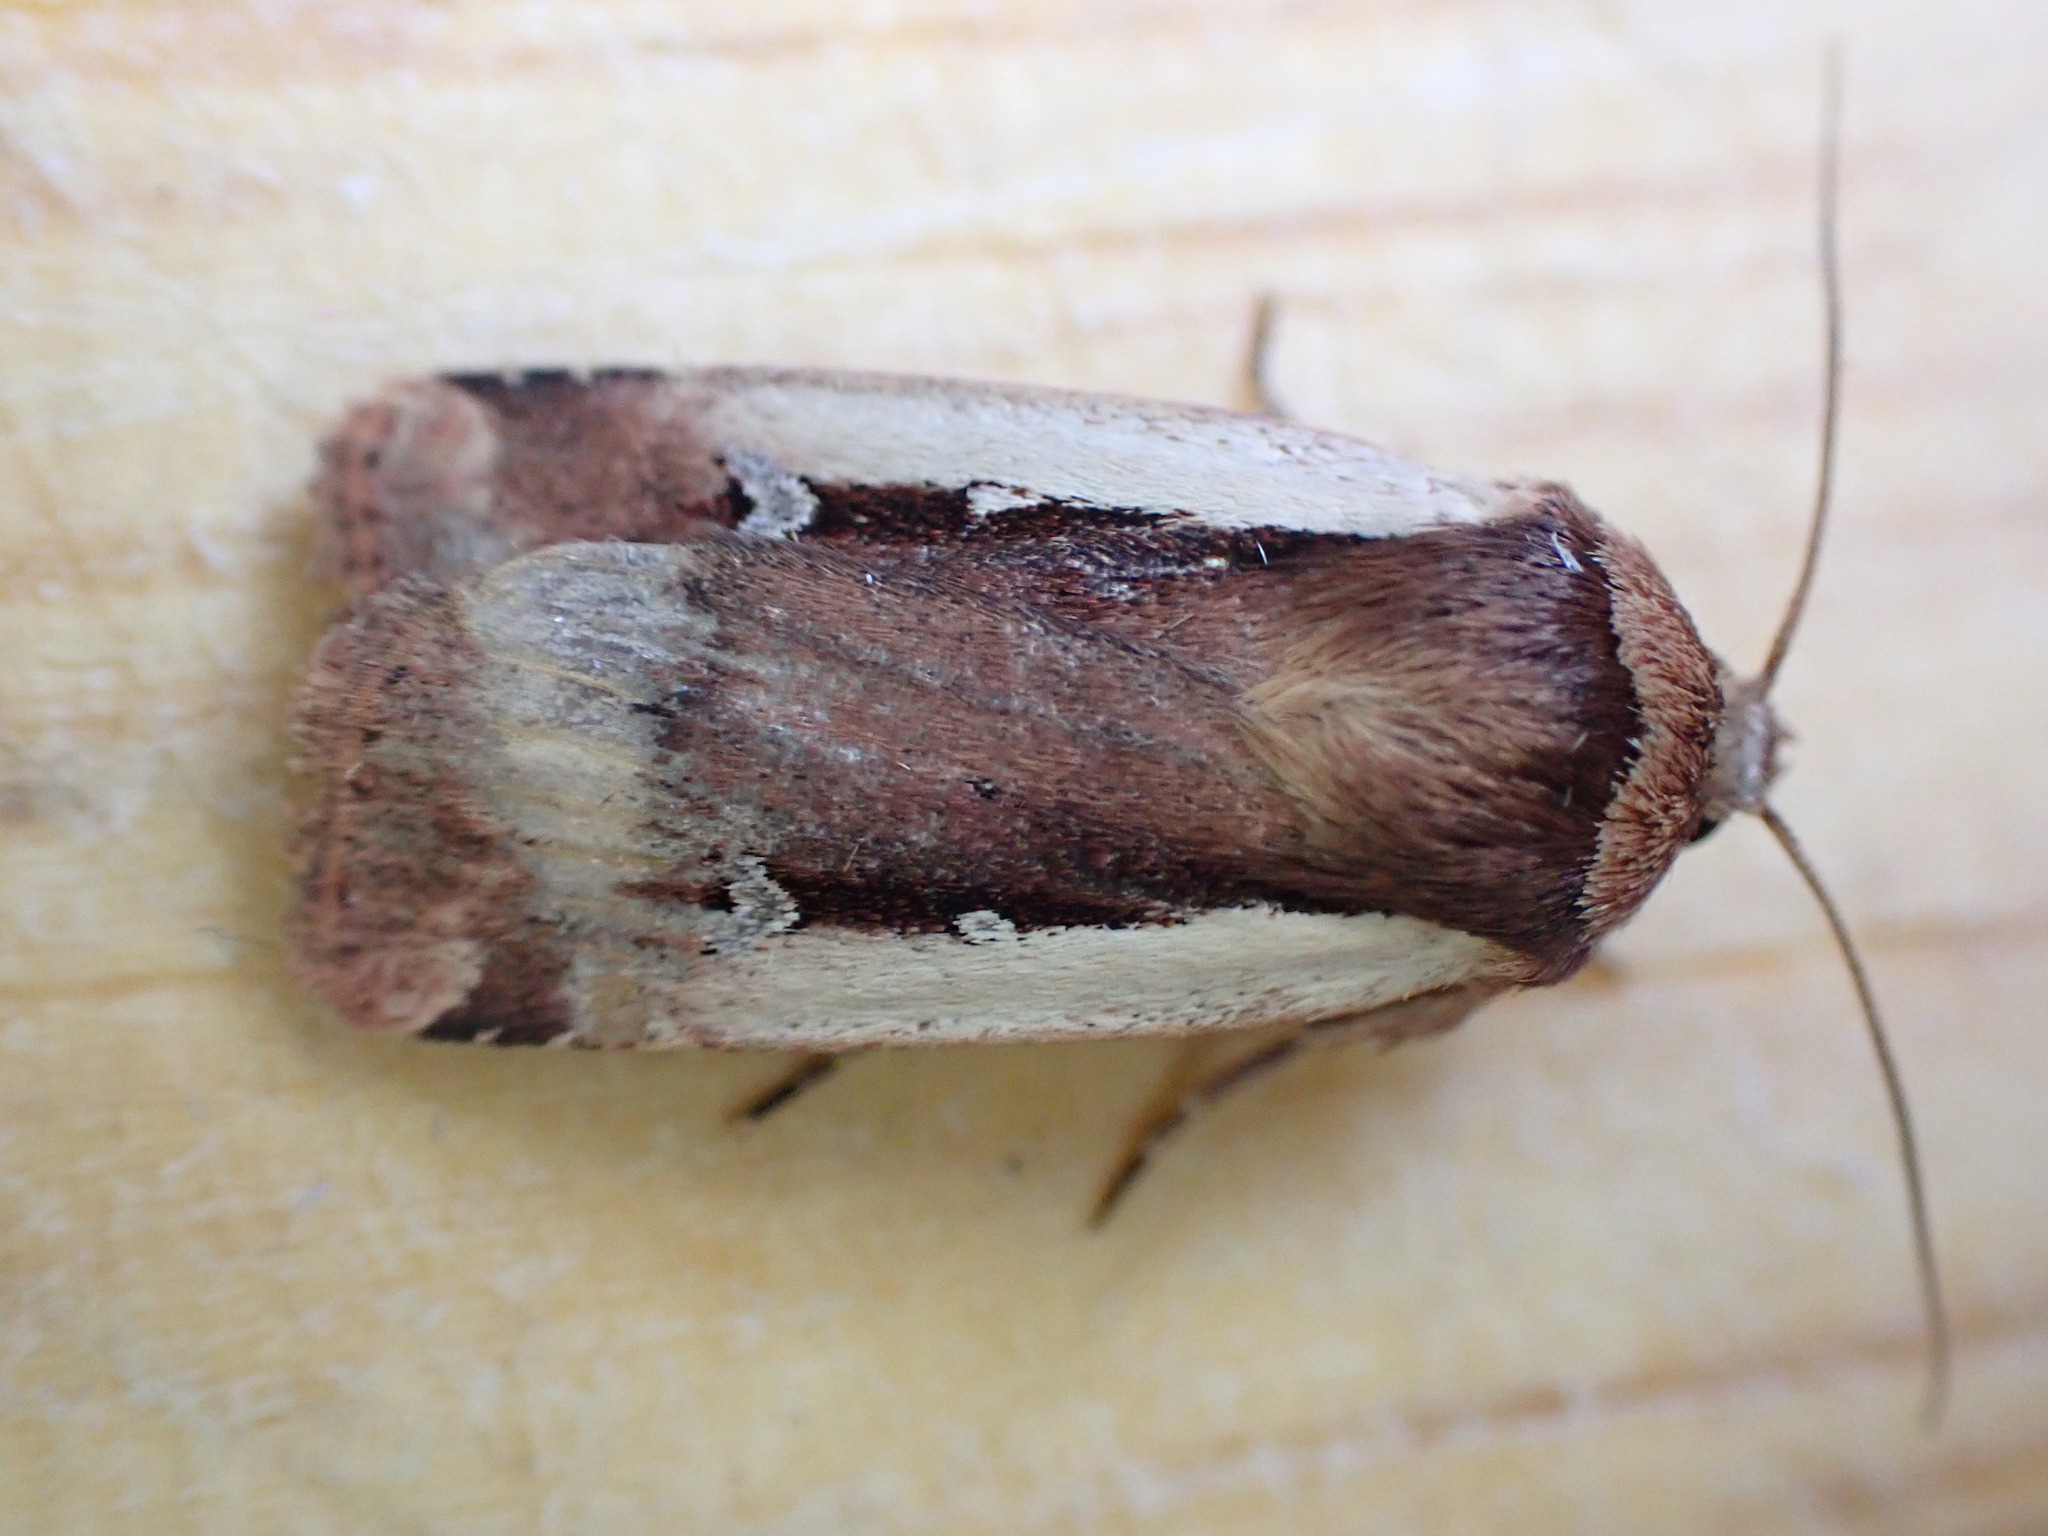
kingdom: Animalia
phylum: Arthropoda
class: Insecta
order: Lepidoptera
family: Noctuidae
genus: Ochropleura
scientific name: Ochropleura plecta
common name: Flame shoulder
